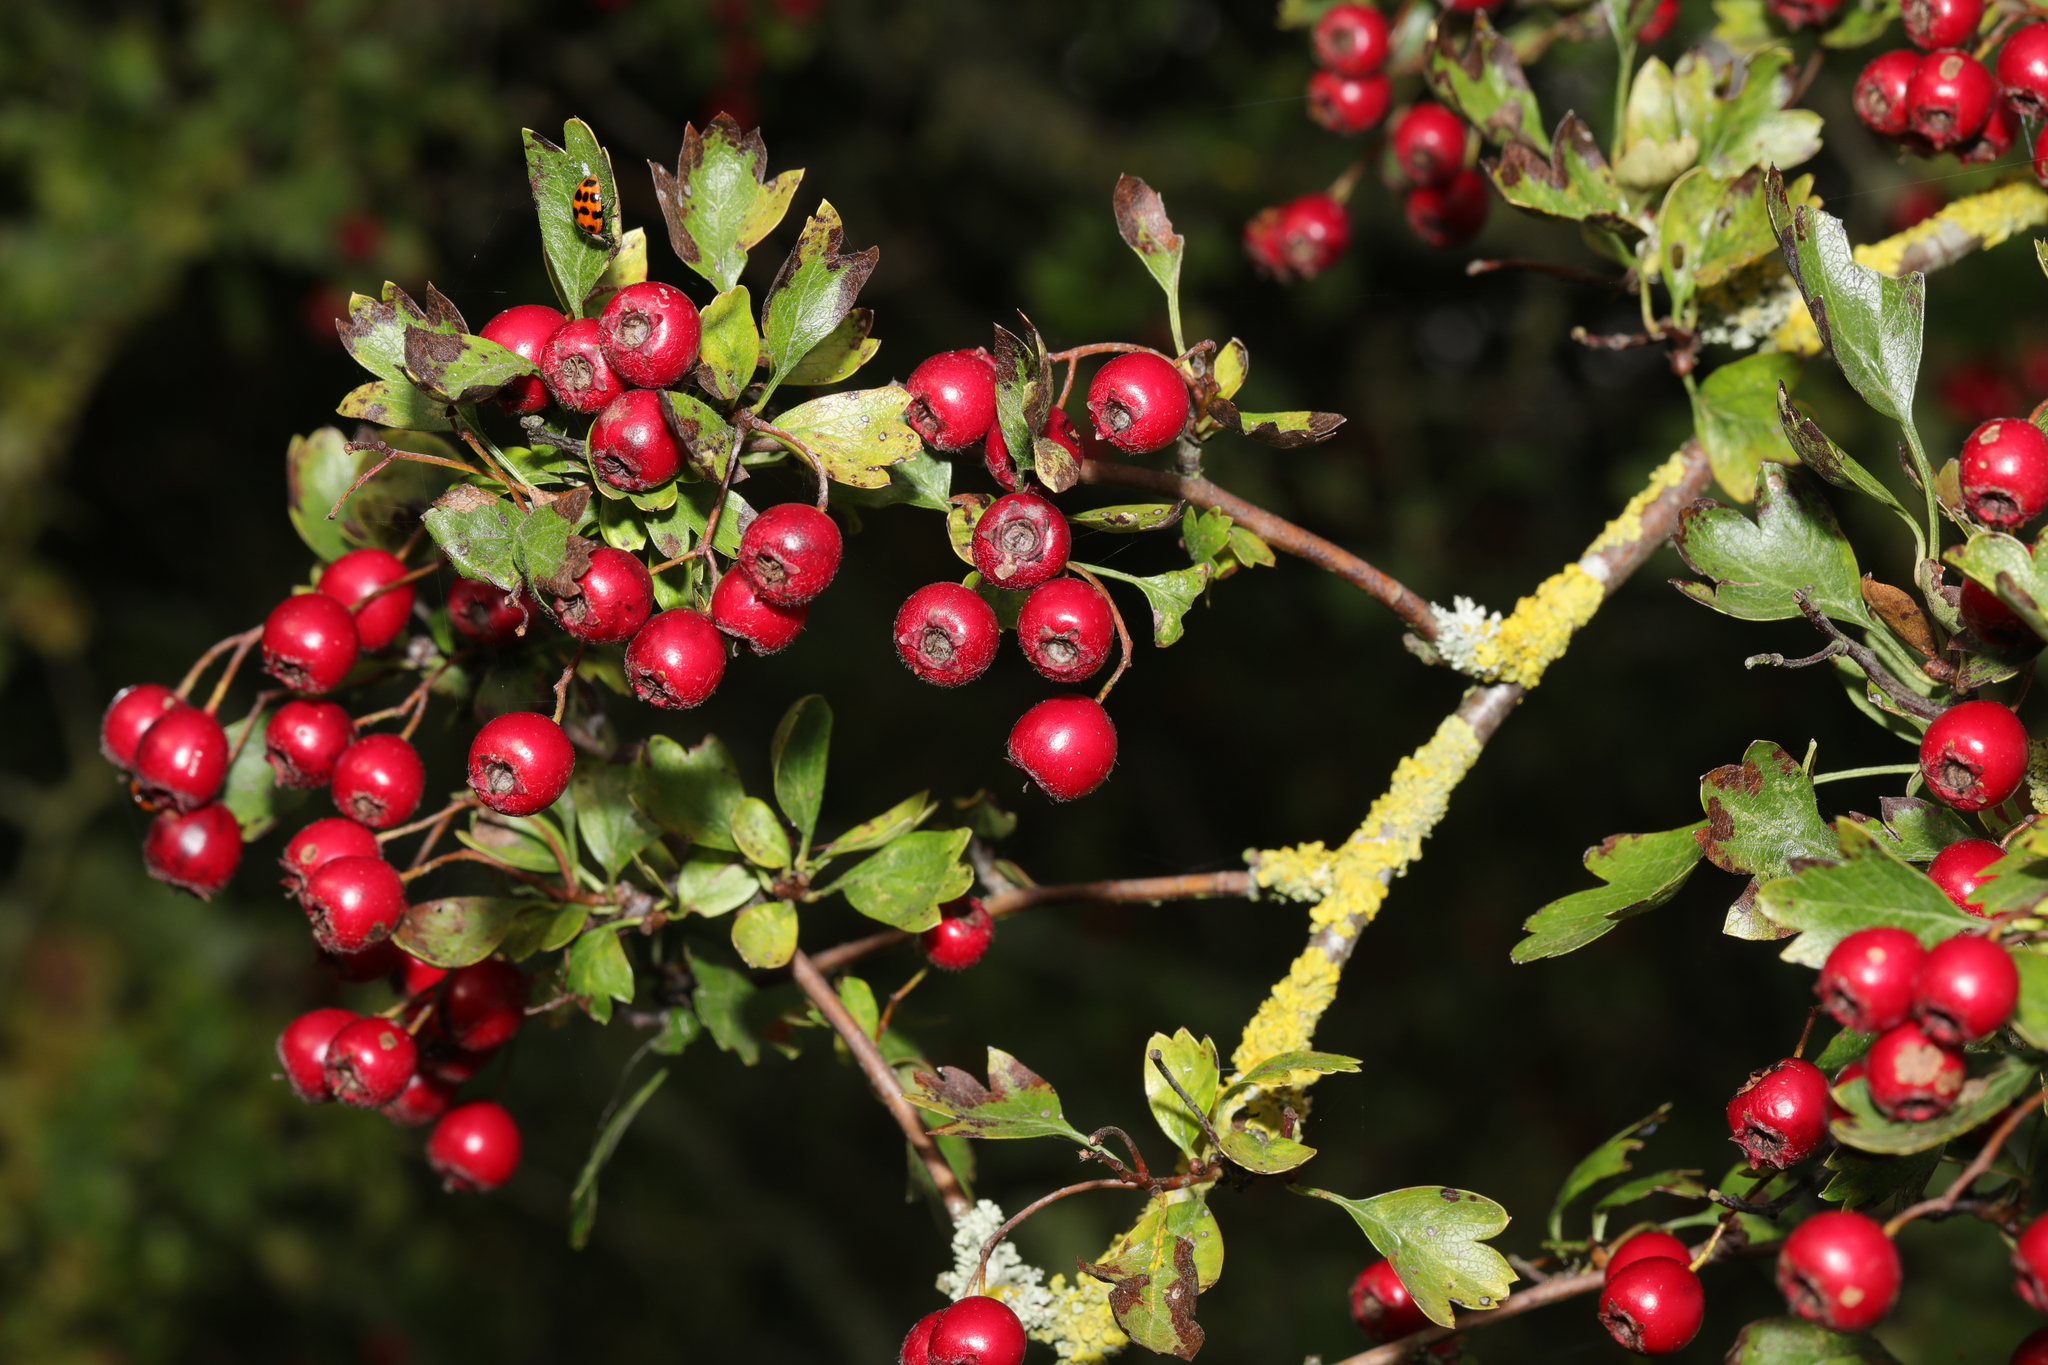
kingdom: Plantae
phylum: Tracheophyta
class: Magnoliopsida
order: Rosales
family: Rosaceae
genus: Crataegus
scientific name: Crataegus media
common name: Intermediate hawthorn
